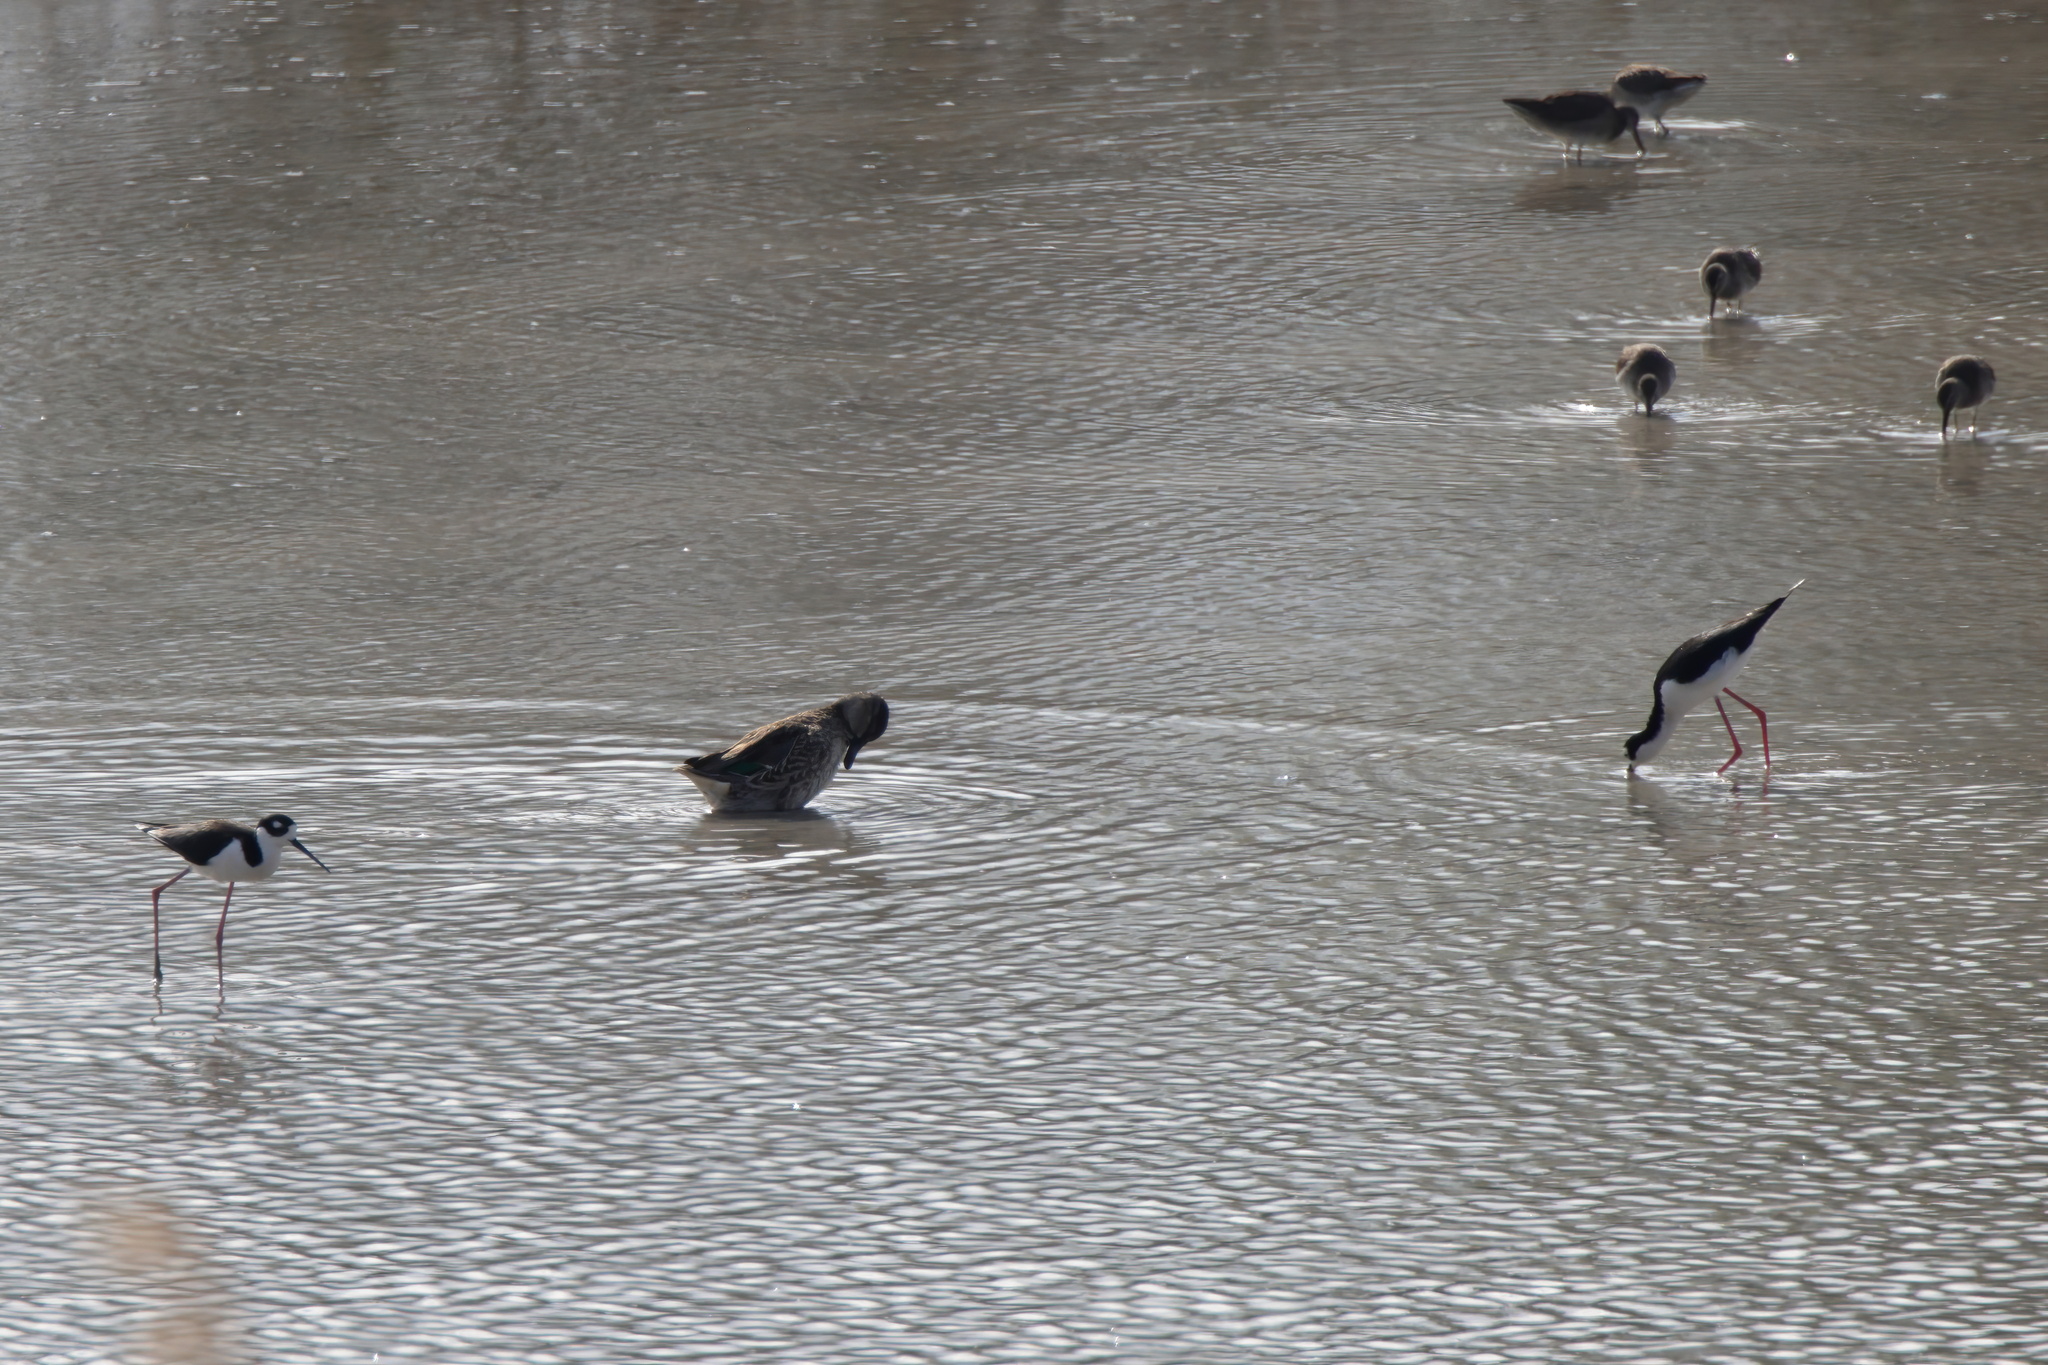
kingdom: Animalia
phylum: Chordata
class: Aves
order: Charadriiformes
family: Recurvirostridae
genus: Himantopus
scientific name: Himantopus mexicanus
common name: Black-necked stilt
